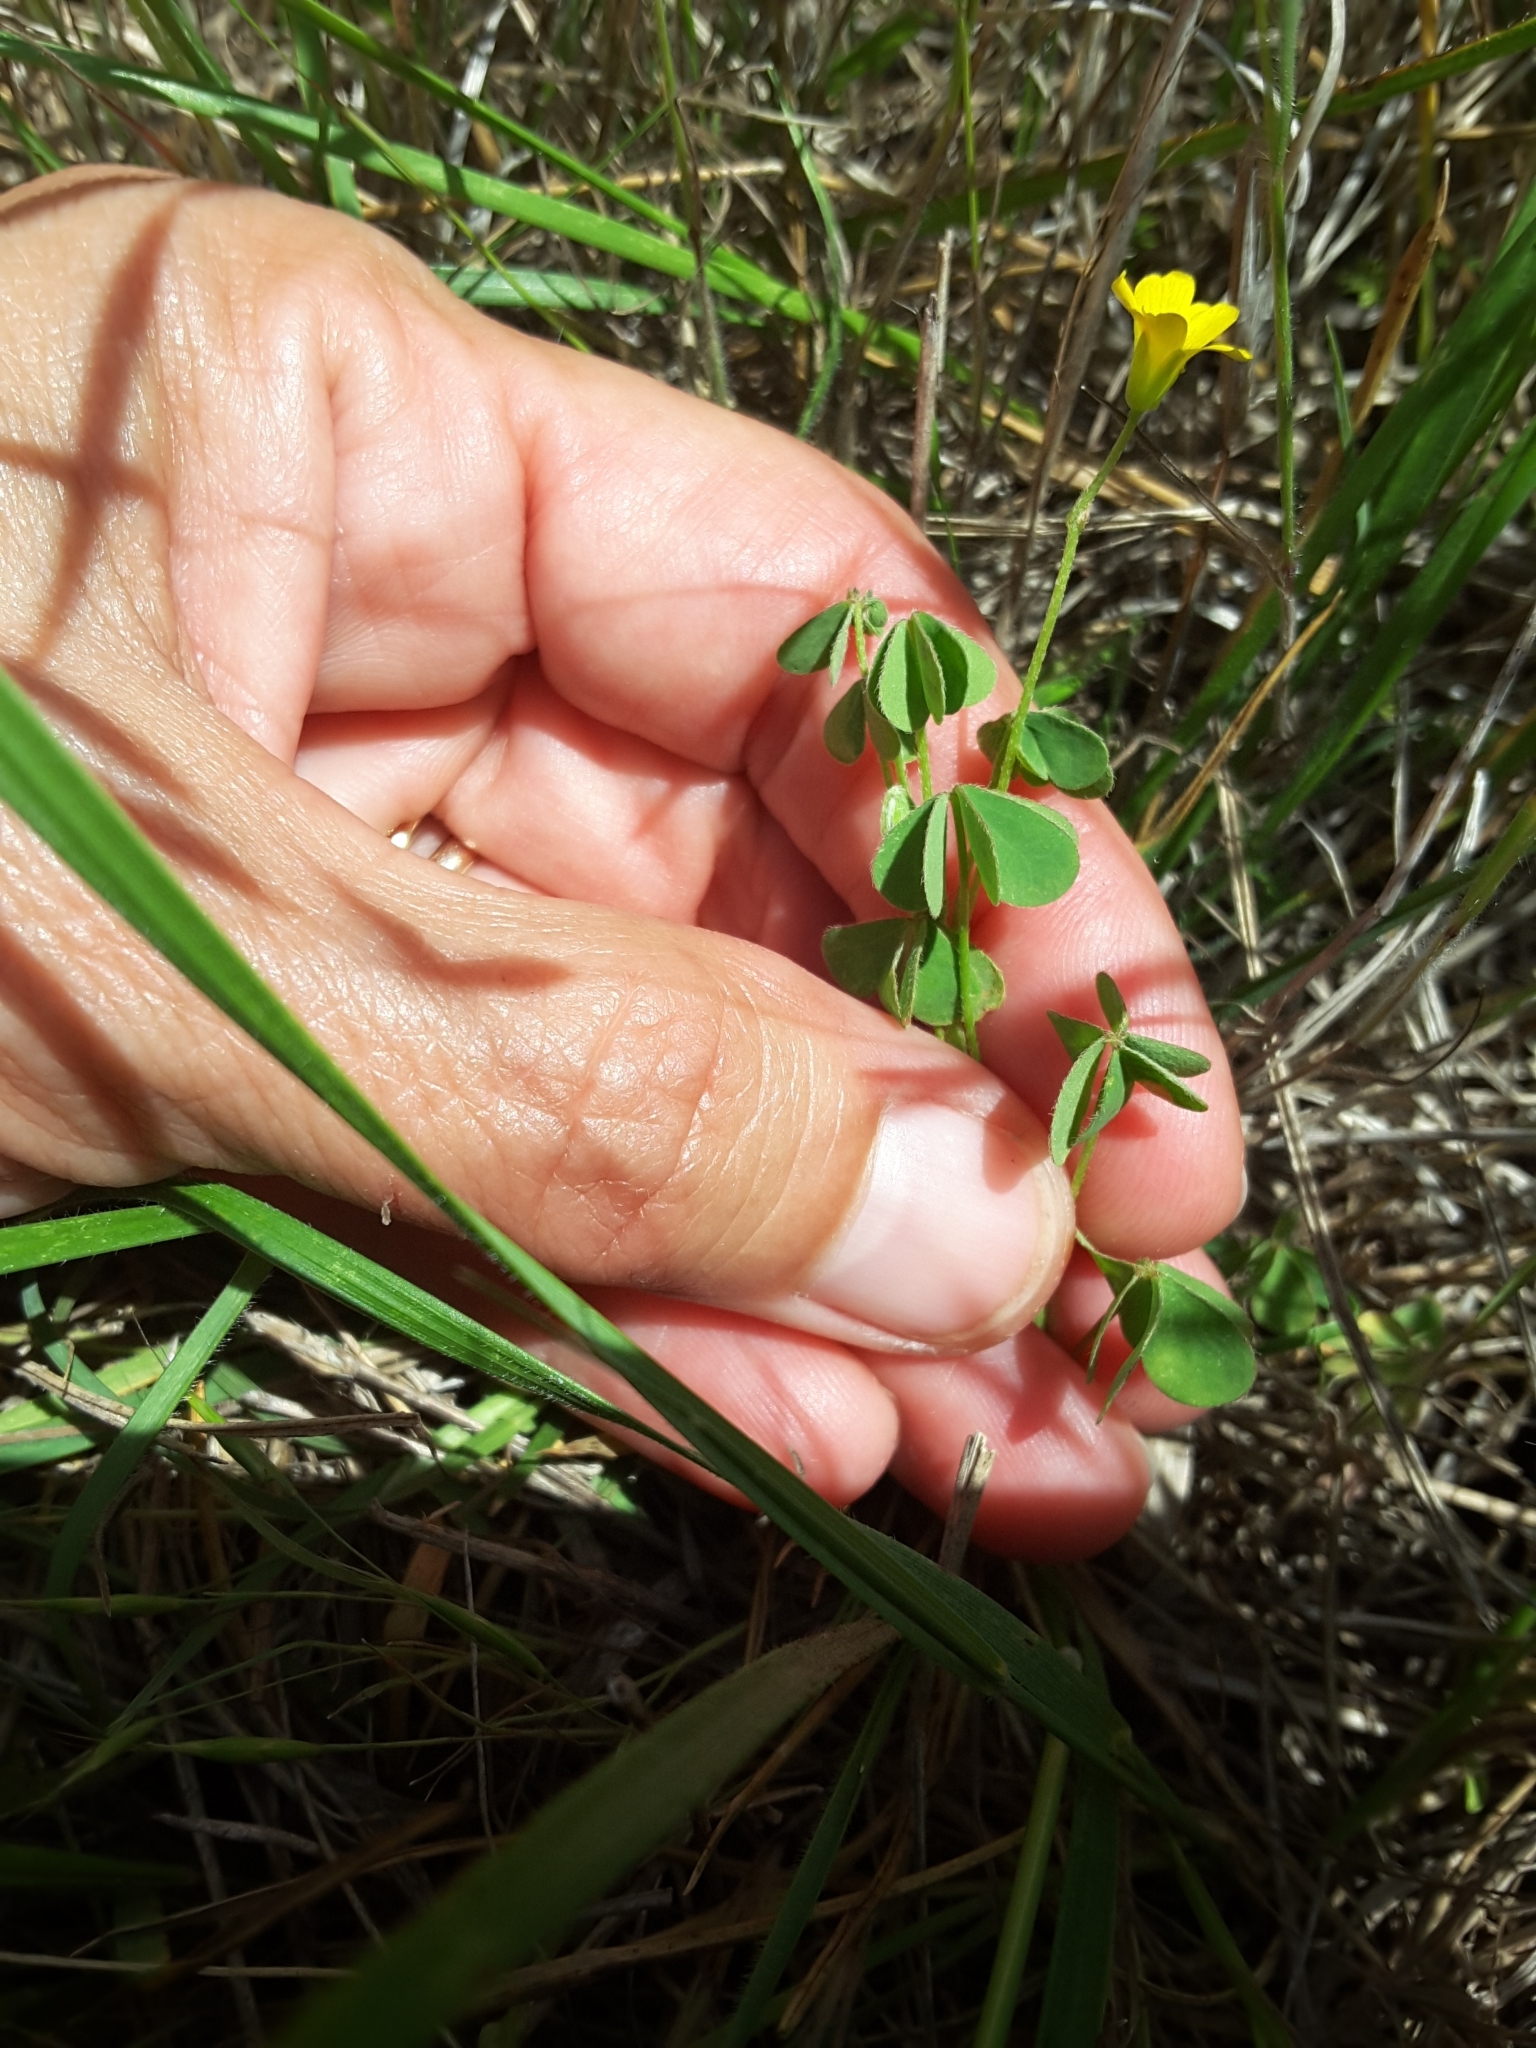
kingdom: Plantae
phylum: Tracheophyta
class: Magnoliopsida
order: Oxalidales
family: Oxalidaceae
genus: Oxalis
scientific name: Oxalis corniculata
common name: Procumbent yellow-sorrel
